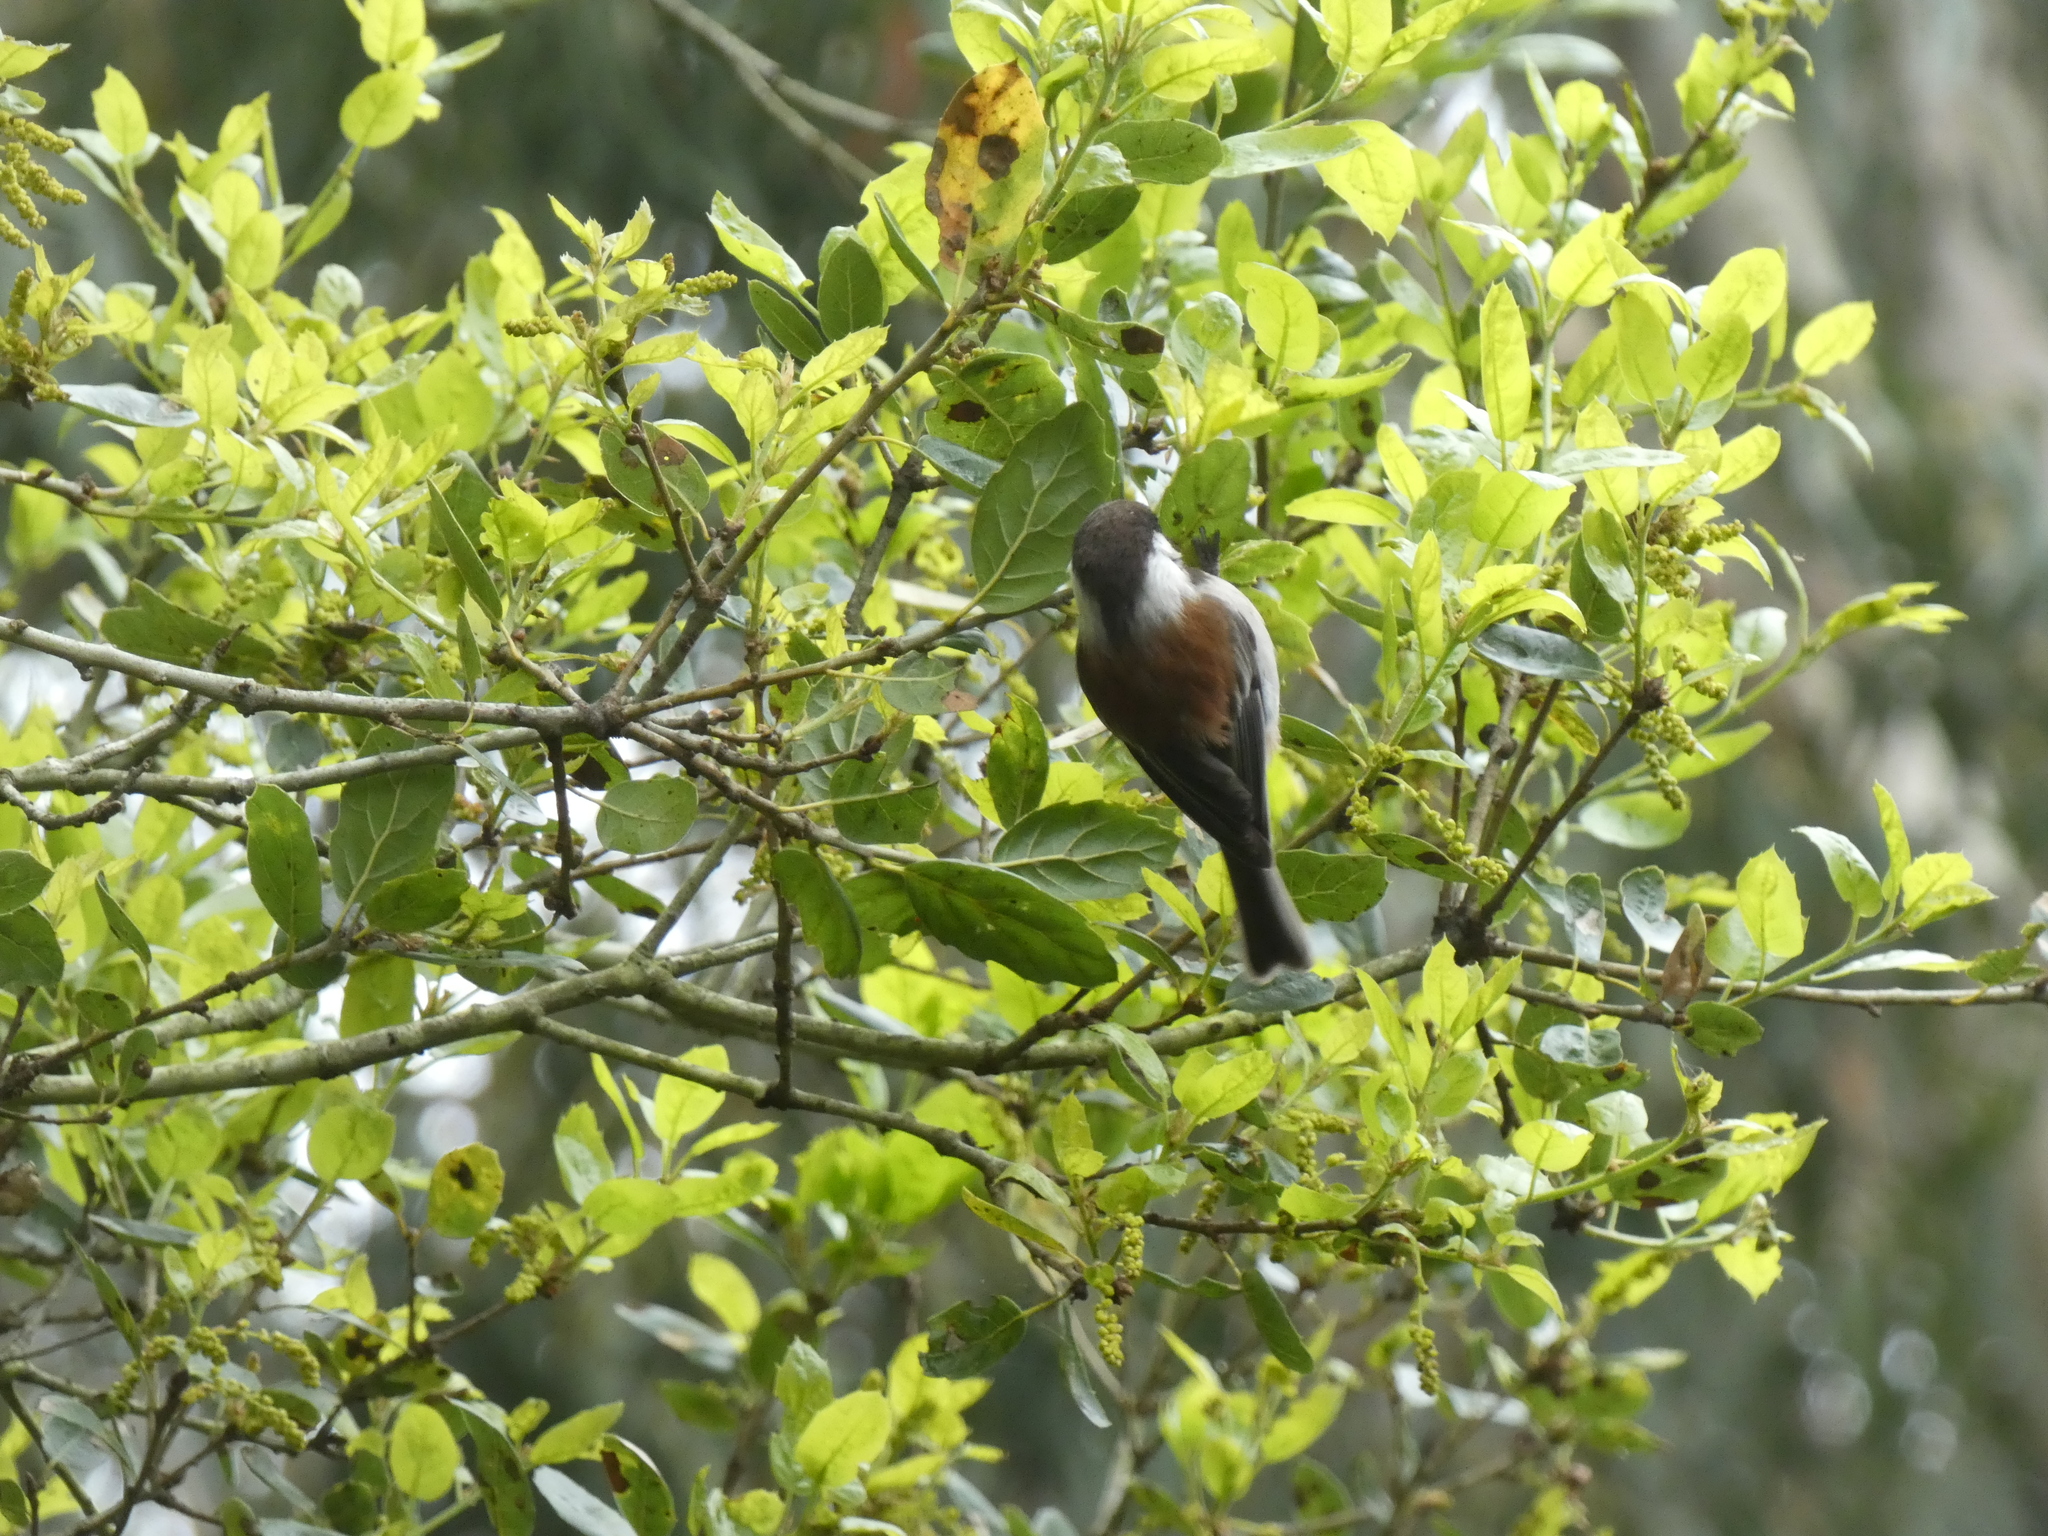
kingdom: Animalia
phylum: Chordata
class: Aves
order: Passeriformes
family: Paridae
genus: Poecile
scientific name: Poecile rufescens
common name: Chestnut-backed chickadee
